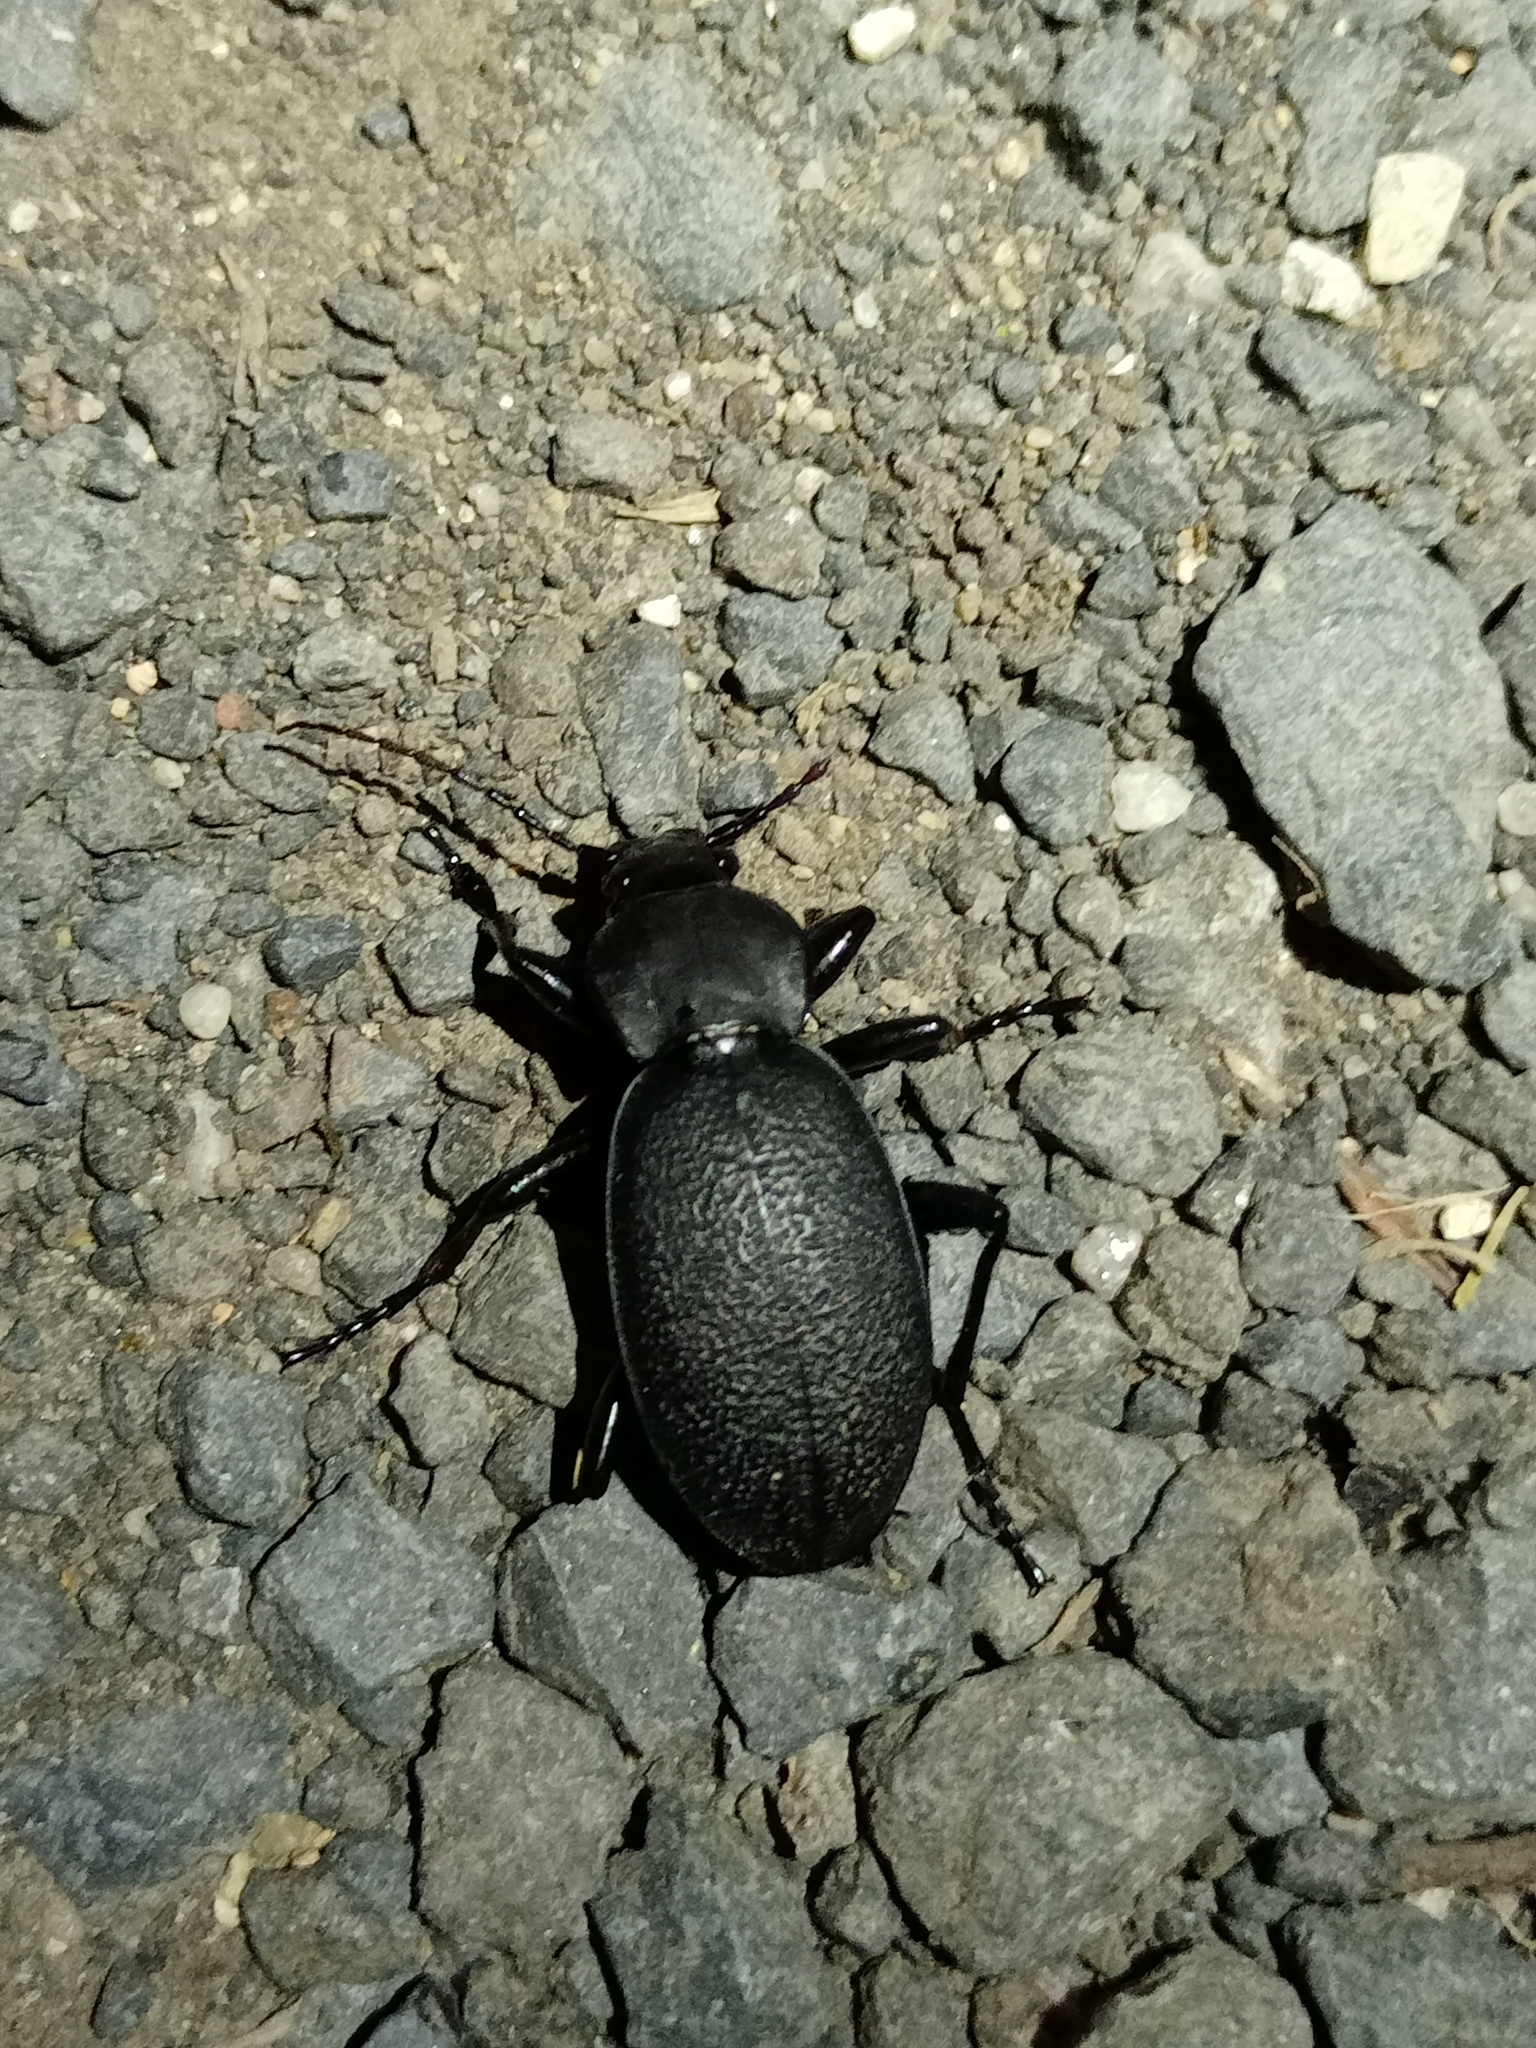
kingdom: Animalia
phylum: Arthropoda
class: Insecta
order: Coleoptera
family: Carabidae
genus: Carabus
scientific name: Carabus coriaceus
